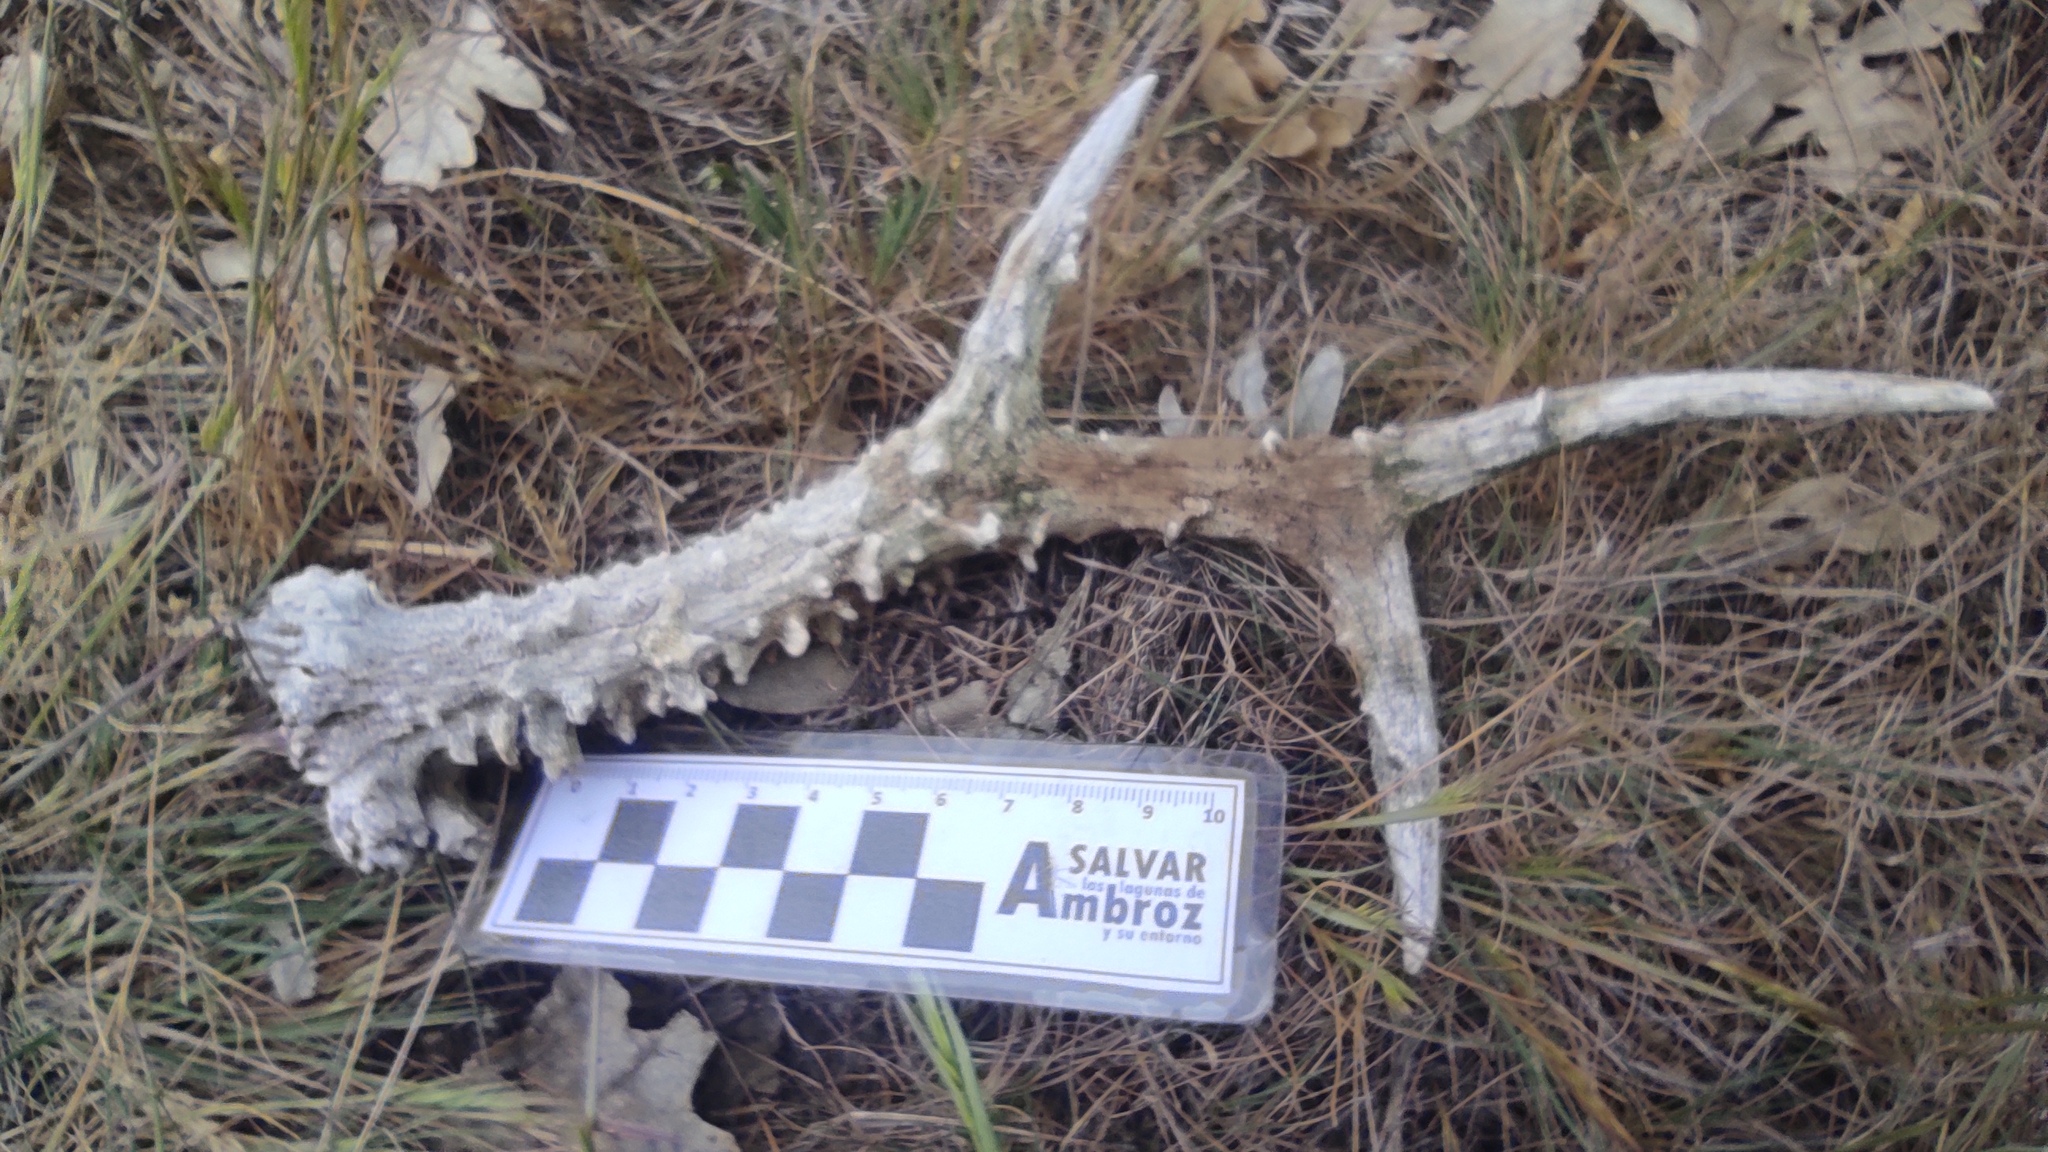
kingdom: Animalia
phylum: Chordata
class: Mammalia
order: Artiodactyla
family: Cervidae
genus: Capreolus
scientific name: Capreolus capreolus
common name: Western roe deer
